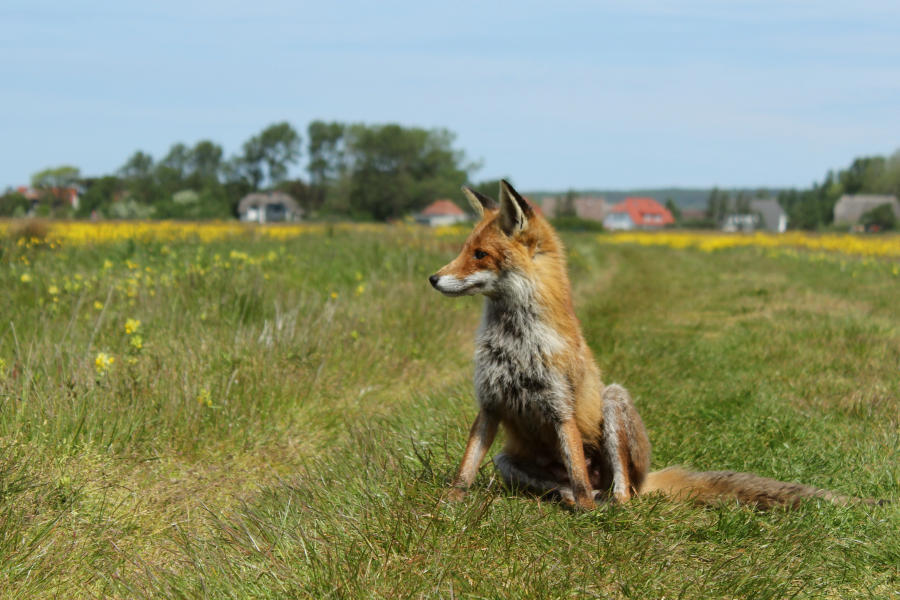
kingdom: Animalia
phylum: Chordata
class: Mammalia
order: Carnivora
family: Canidae
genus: Vulpes
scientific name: Vulpes vulpes
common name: Red fox
